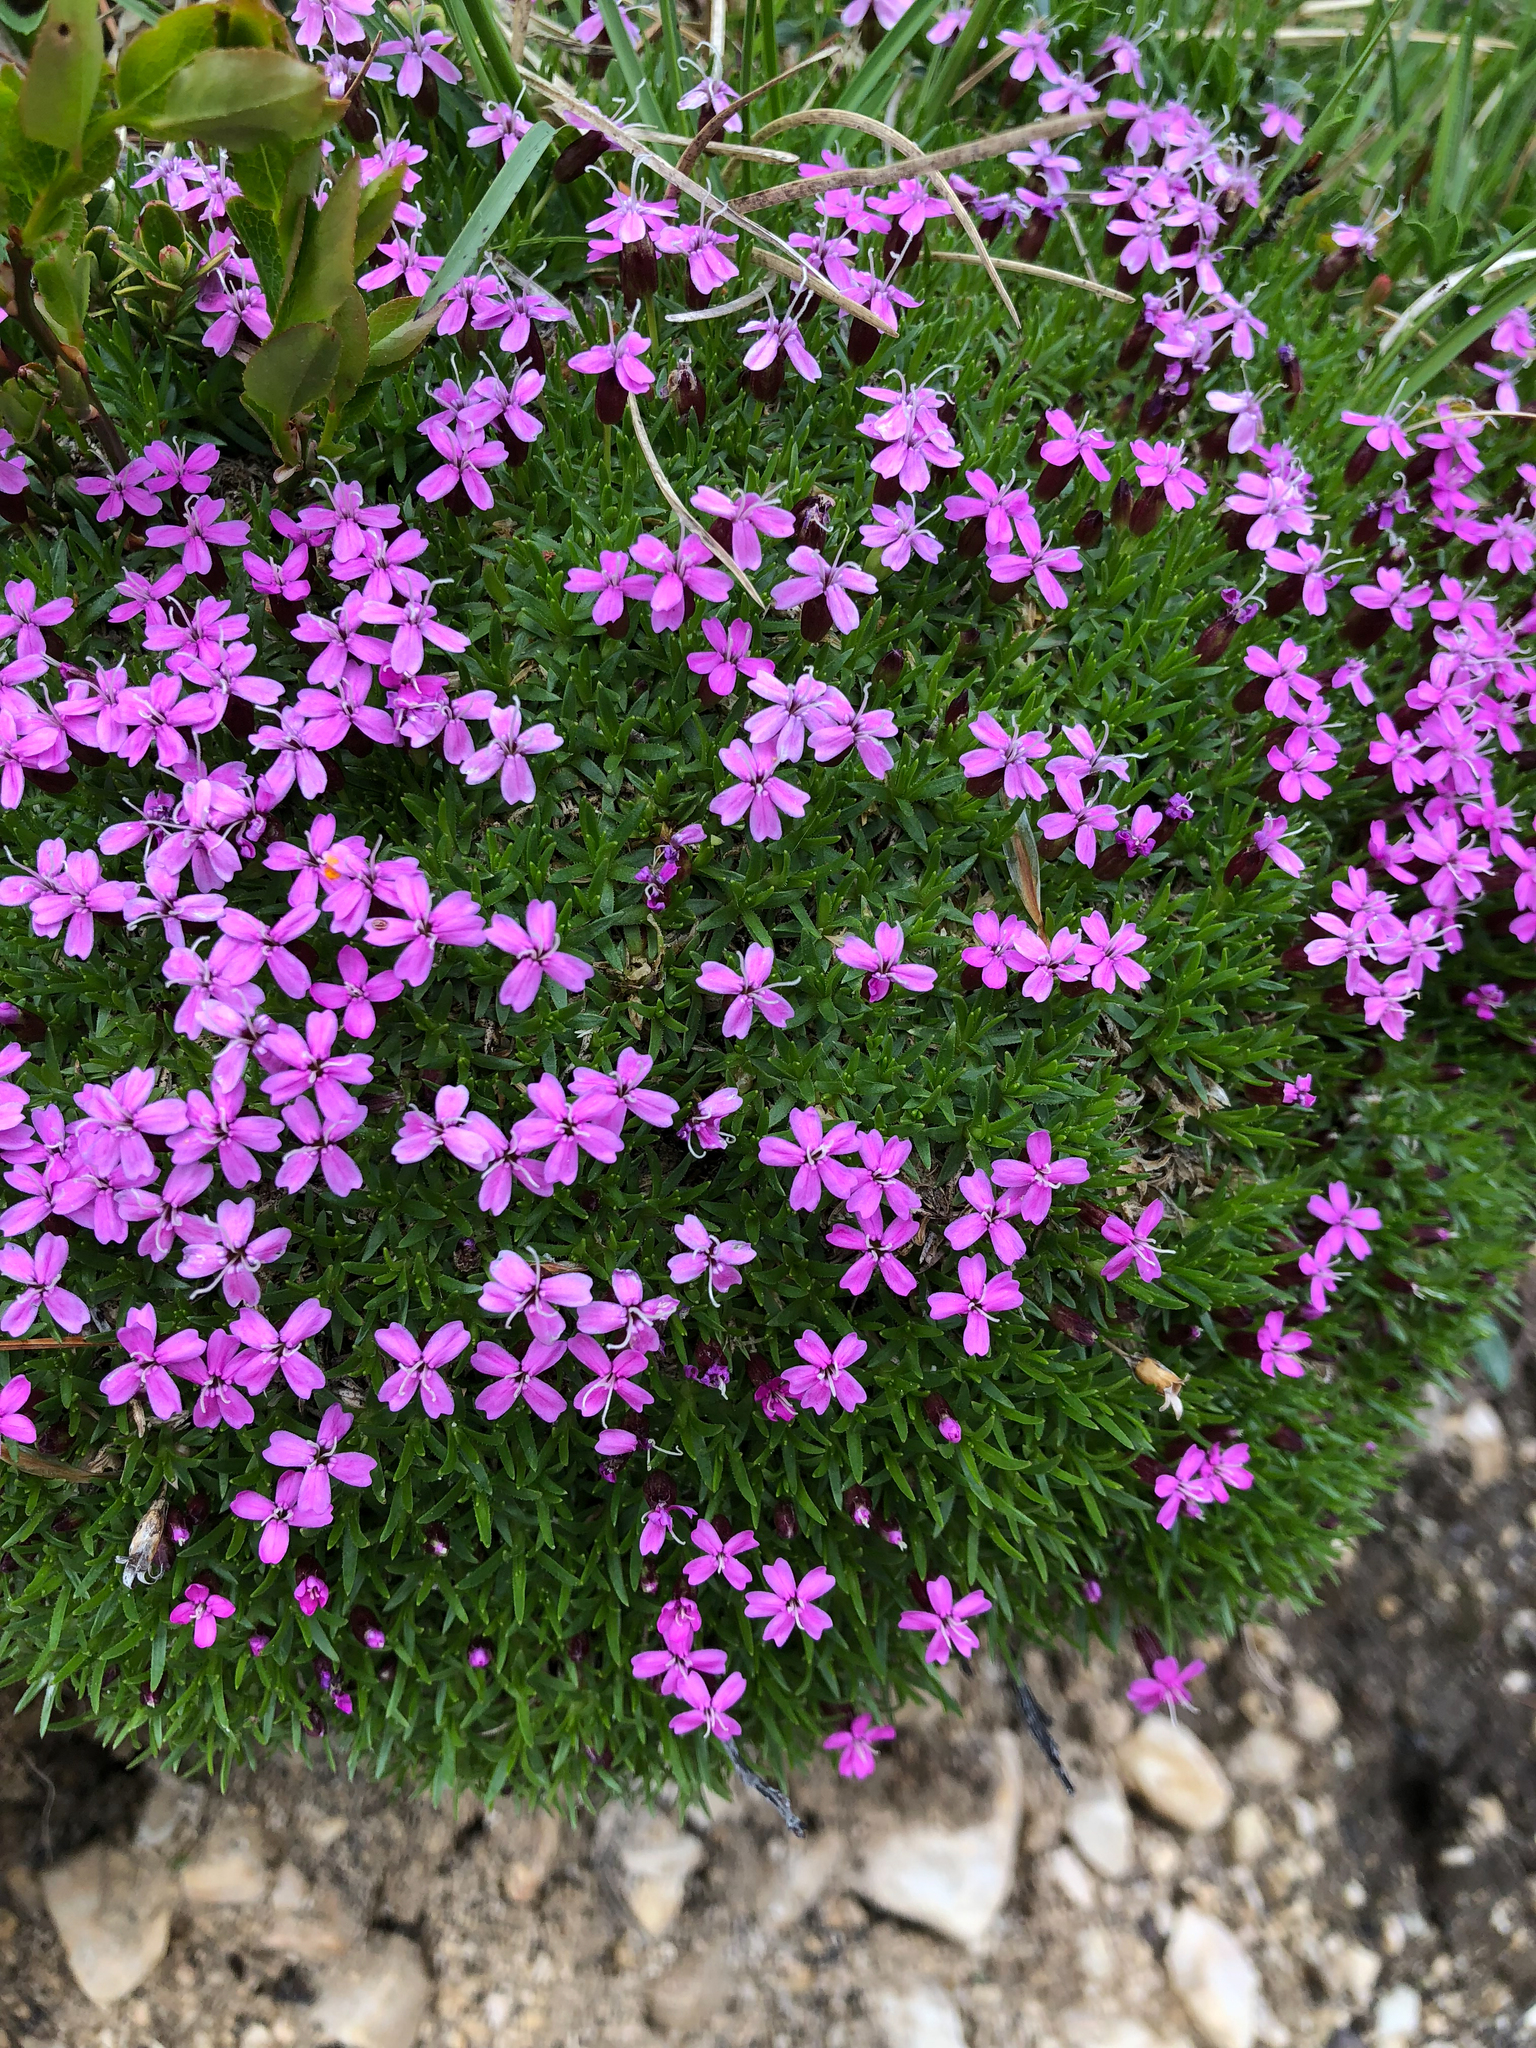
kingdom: Plantae
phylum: Tracheophyta
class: Magnoliopsida
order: Caryophyllales
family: Caryophyllaceae
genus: Silene
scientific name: Silene acaulis
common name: Moss campion
